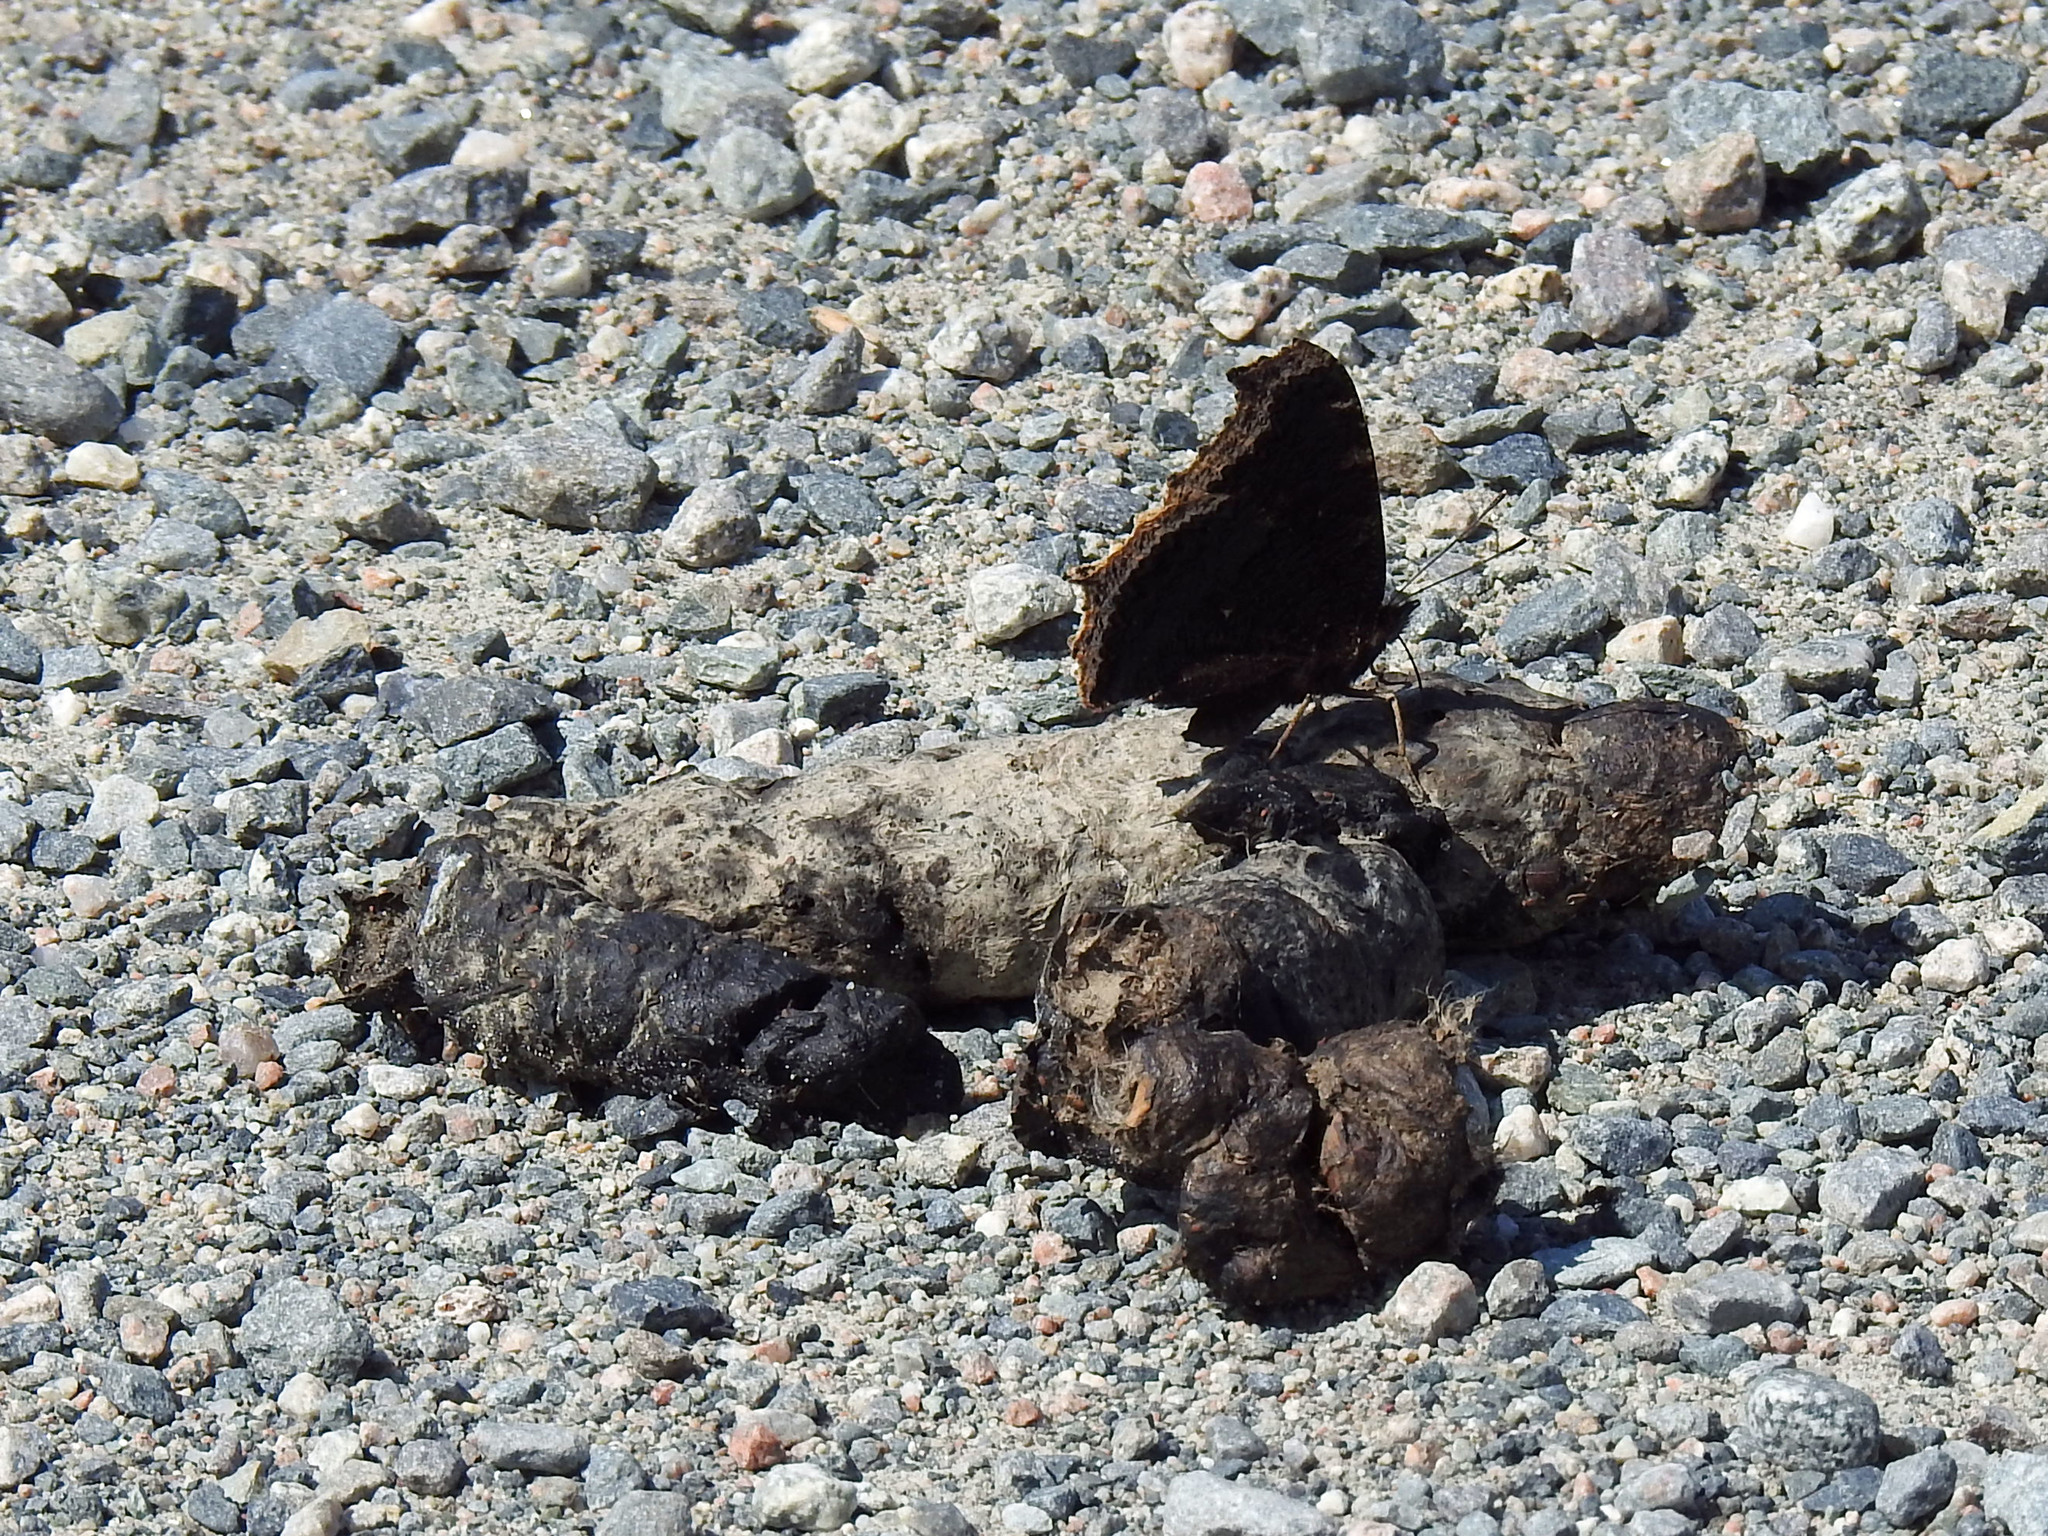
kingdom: Animalia
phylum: Arthropoda
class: Insecta
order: Lepidoptera
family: Nymphalidae
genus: Nymphalis
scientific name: Nymphalis antiopa
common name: Camberwell beauty
